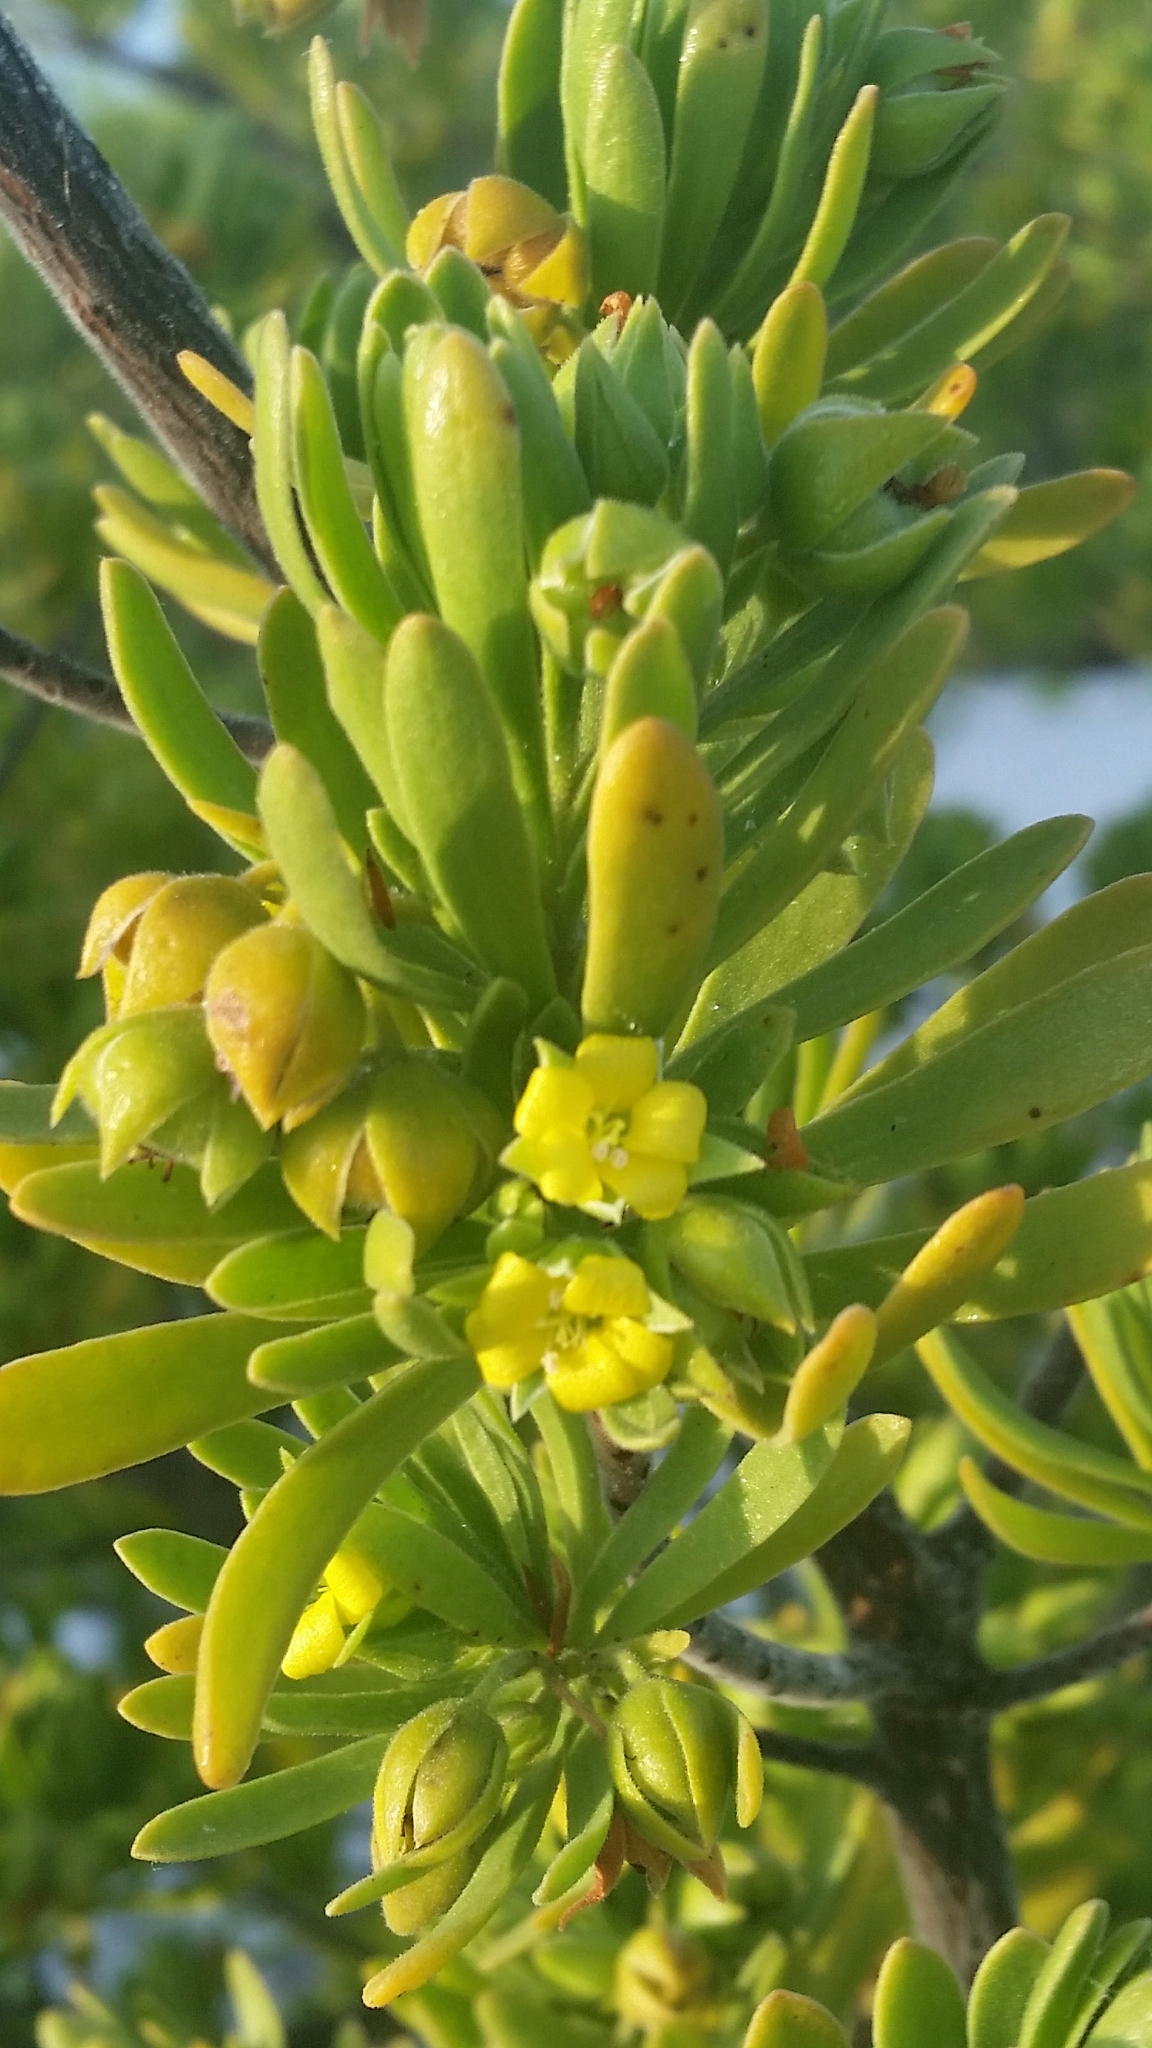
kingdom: Plantae
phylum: Tracheophyta
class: Magnoliopsida
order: Fabales
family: Surianaceae
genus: Suriana
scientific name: Suriana maritima
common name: Bay-cedar
